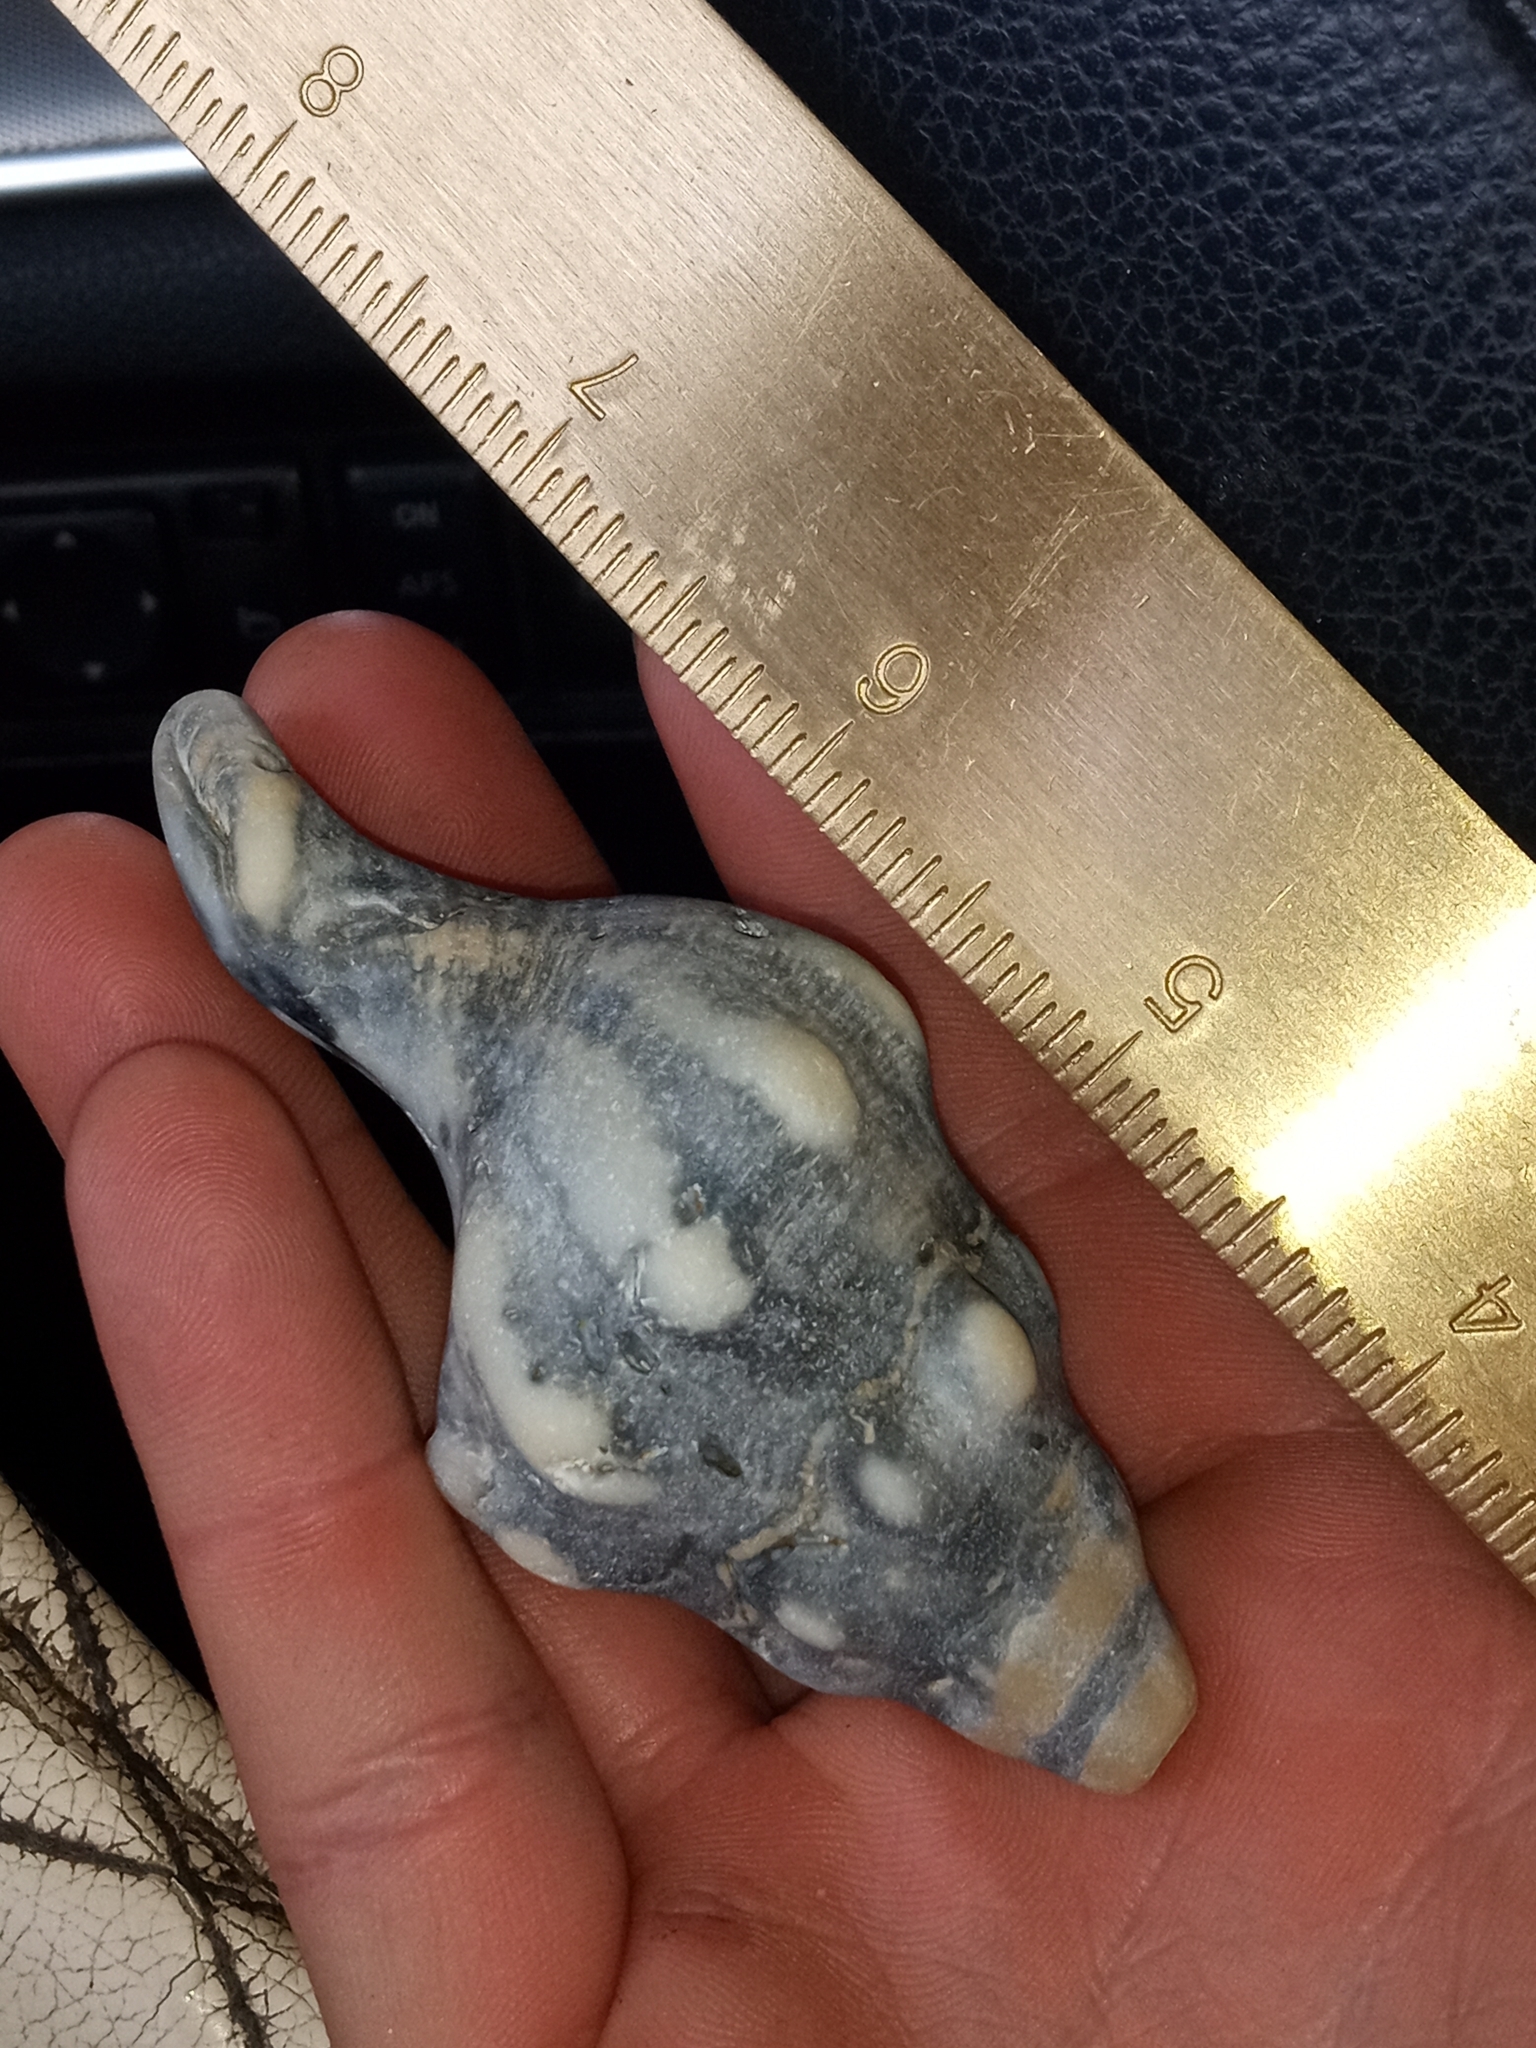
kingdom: Animalia
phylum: Mollusca
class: Gastropoda
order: Neogastropoda
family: Austrosiphonidae
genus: Kelletia
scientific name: Kelletia kelletii
